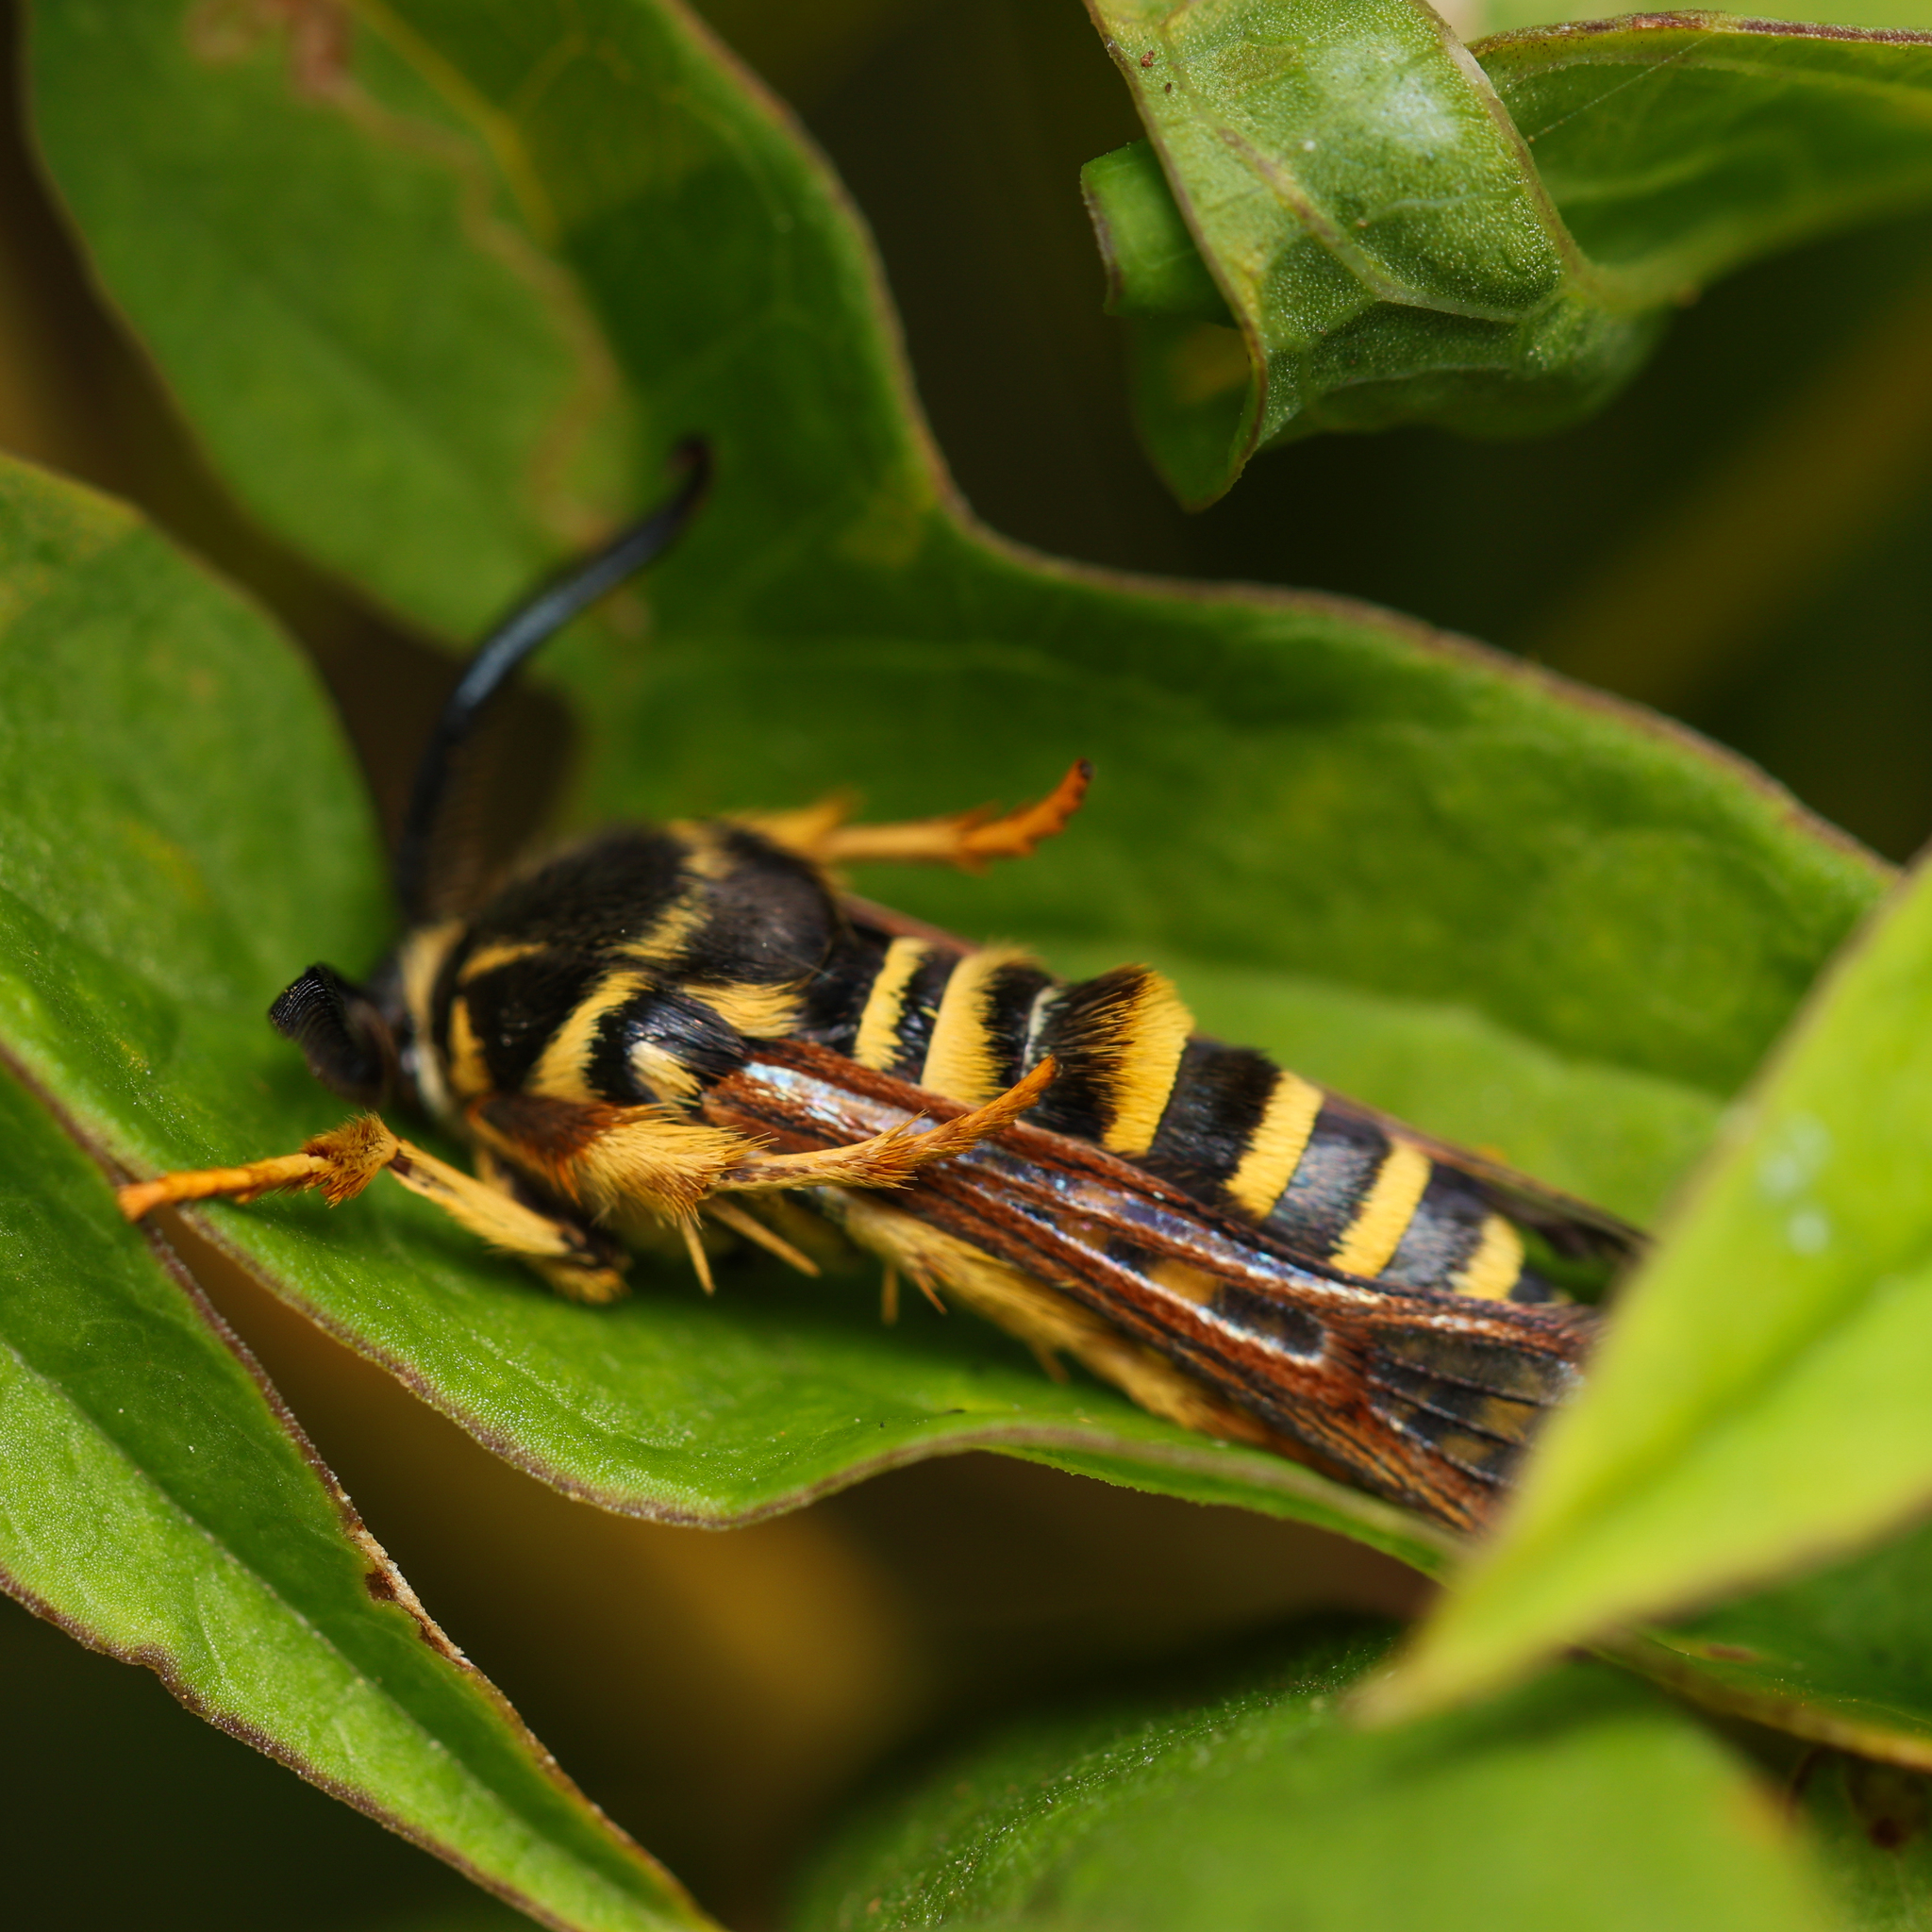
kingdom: Animalia
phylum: Arthropoda
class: Insecta
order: Lepidoptera
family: Sesiidae
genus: Pennisetia
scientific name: Pennisetia marginatum
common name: Raspberry crown borer
